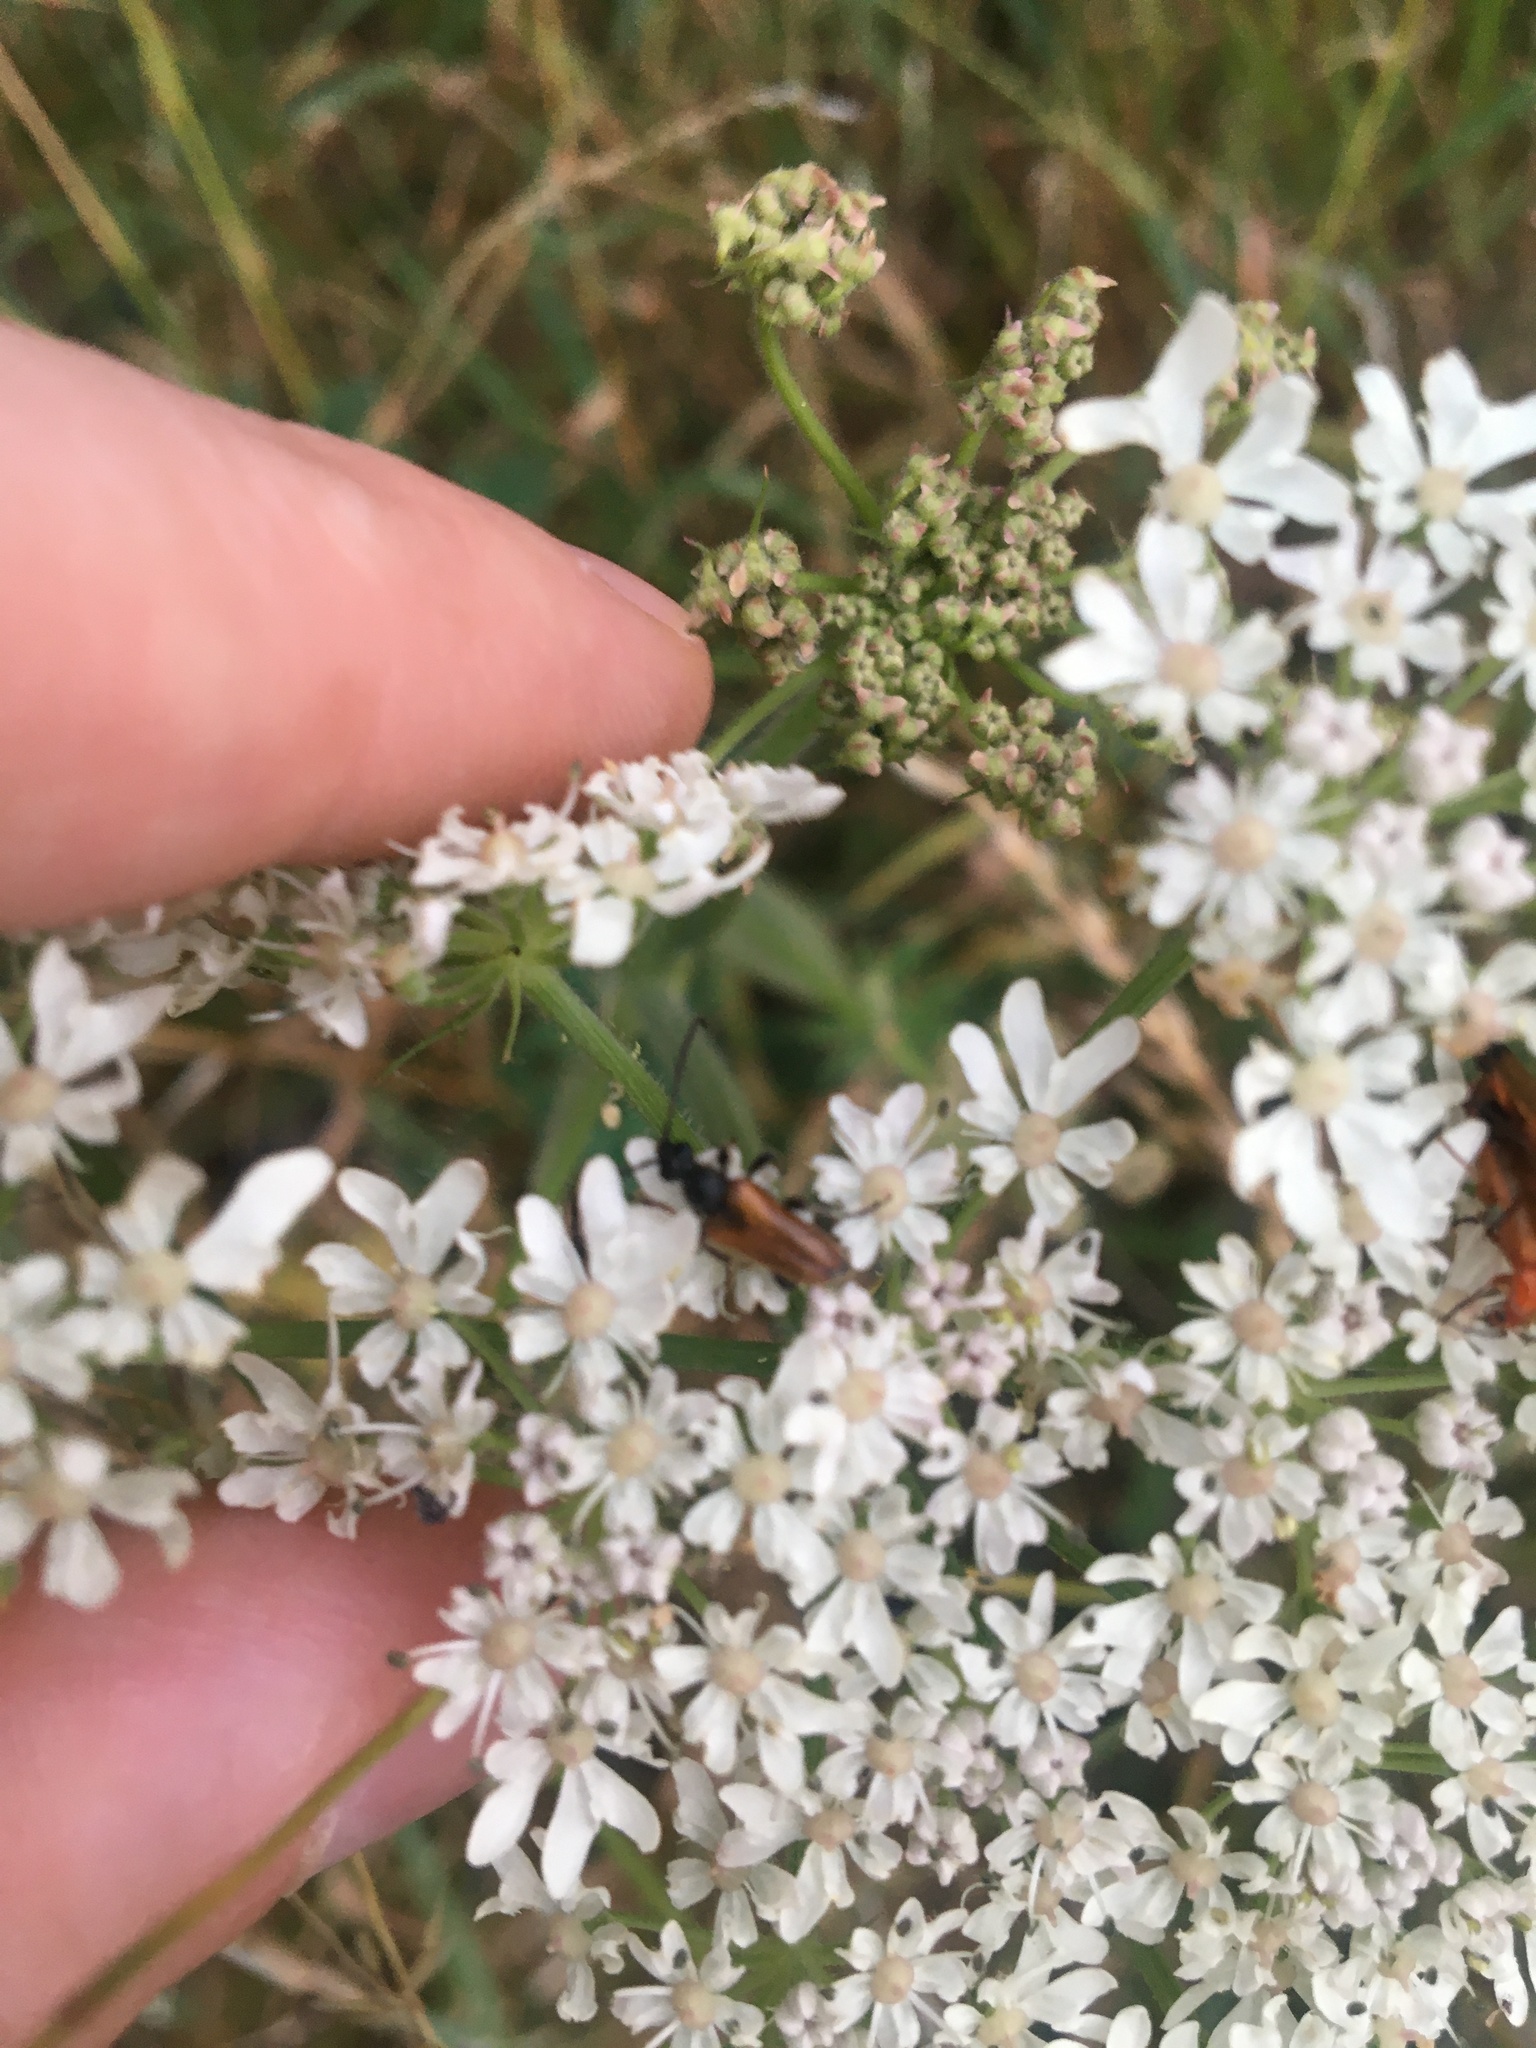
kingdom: Animalia
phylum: Arthropoda
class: Insecta
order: Coleoptera
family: Cerambycidae
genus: Pseudovadonia
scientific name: Pseudovadonia livida
